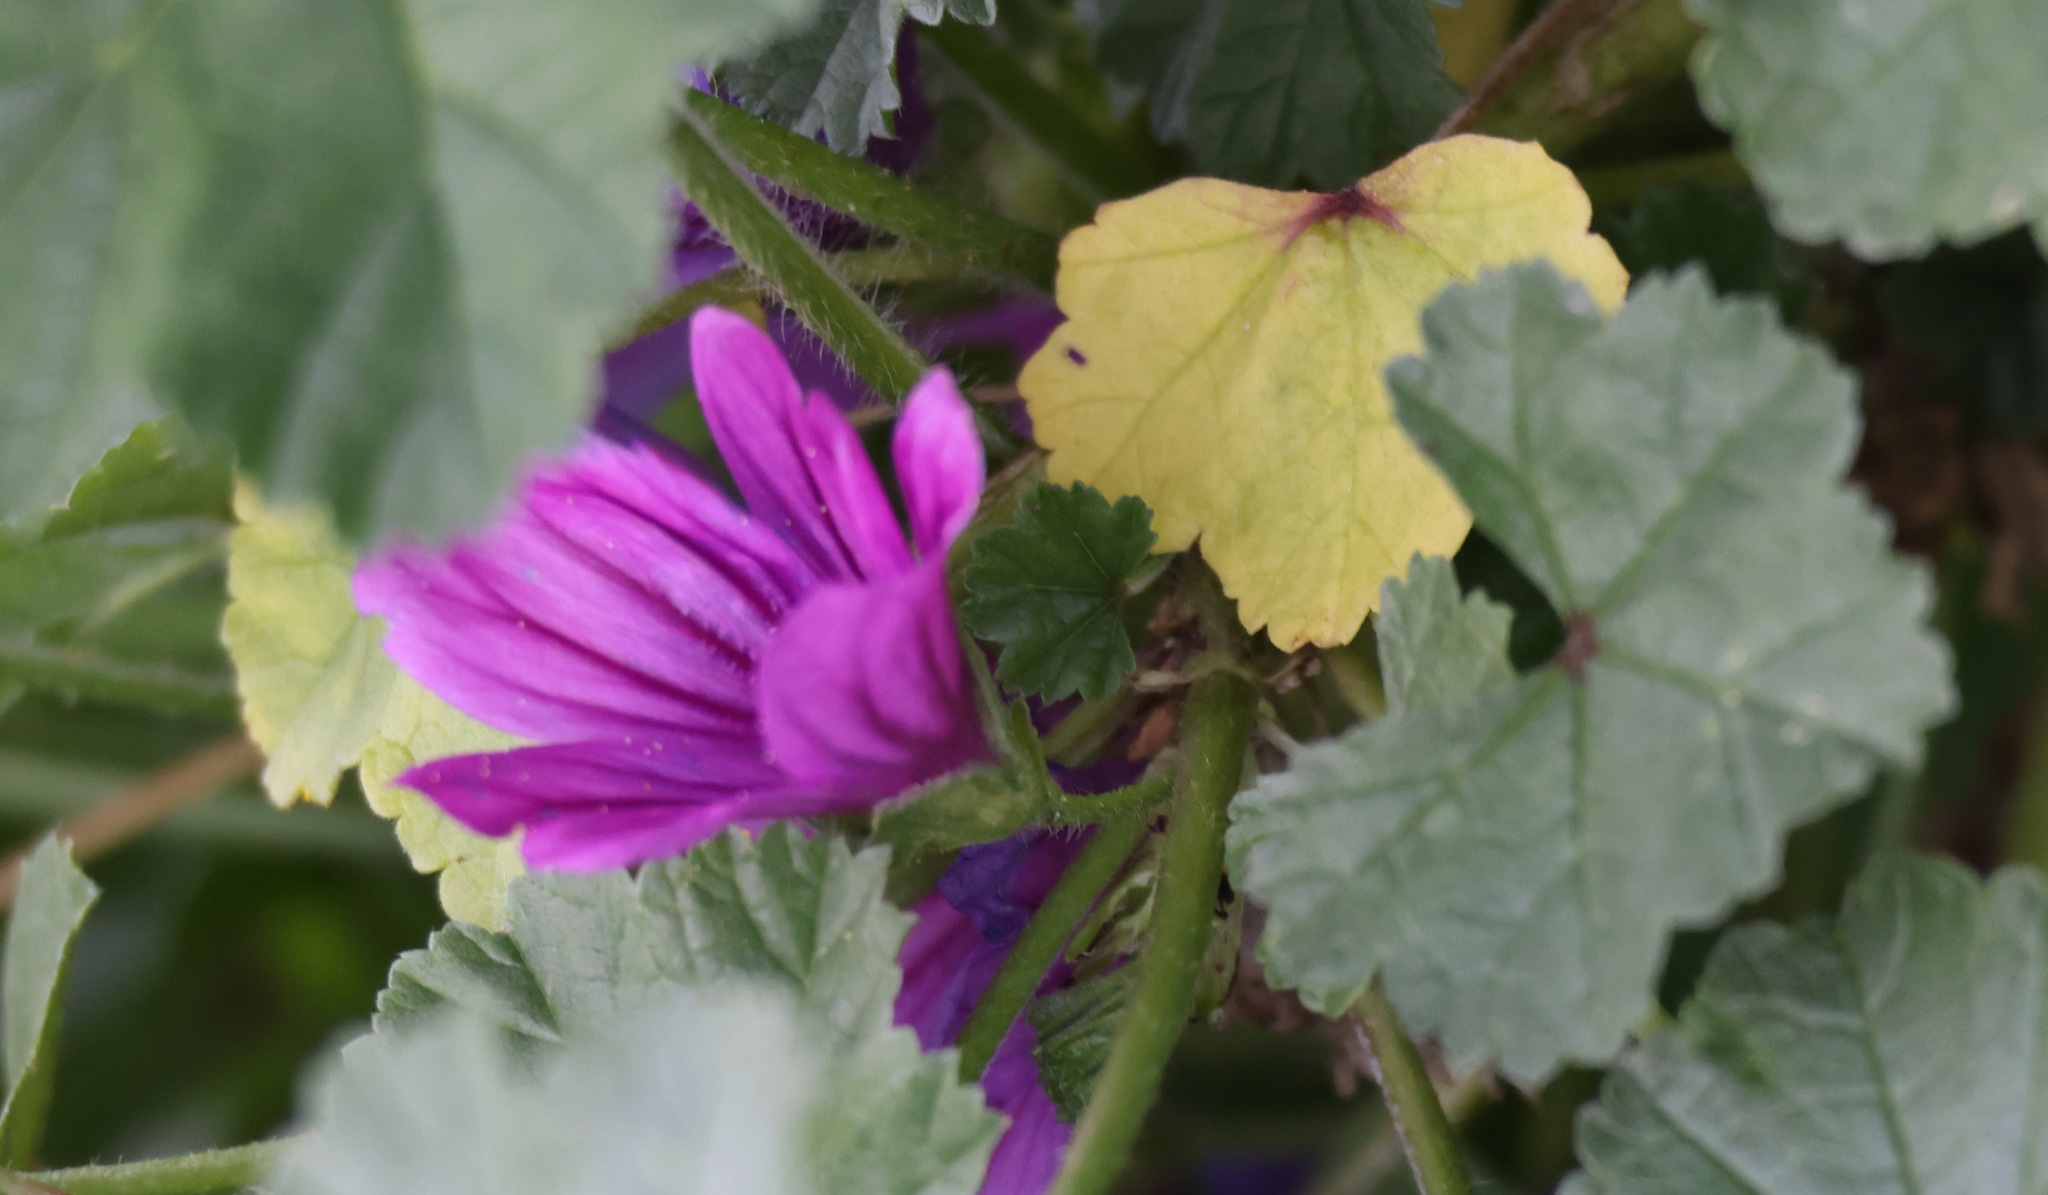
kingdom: Plantae
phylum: Tracheophyta
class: Magnoliopsida
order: Malvales
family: Malvaceae
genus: Malva
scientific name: Malva sylvestris
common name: Common mallow
